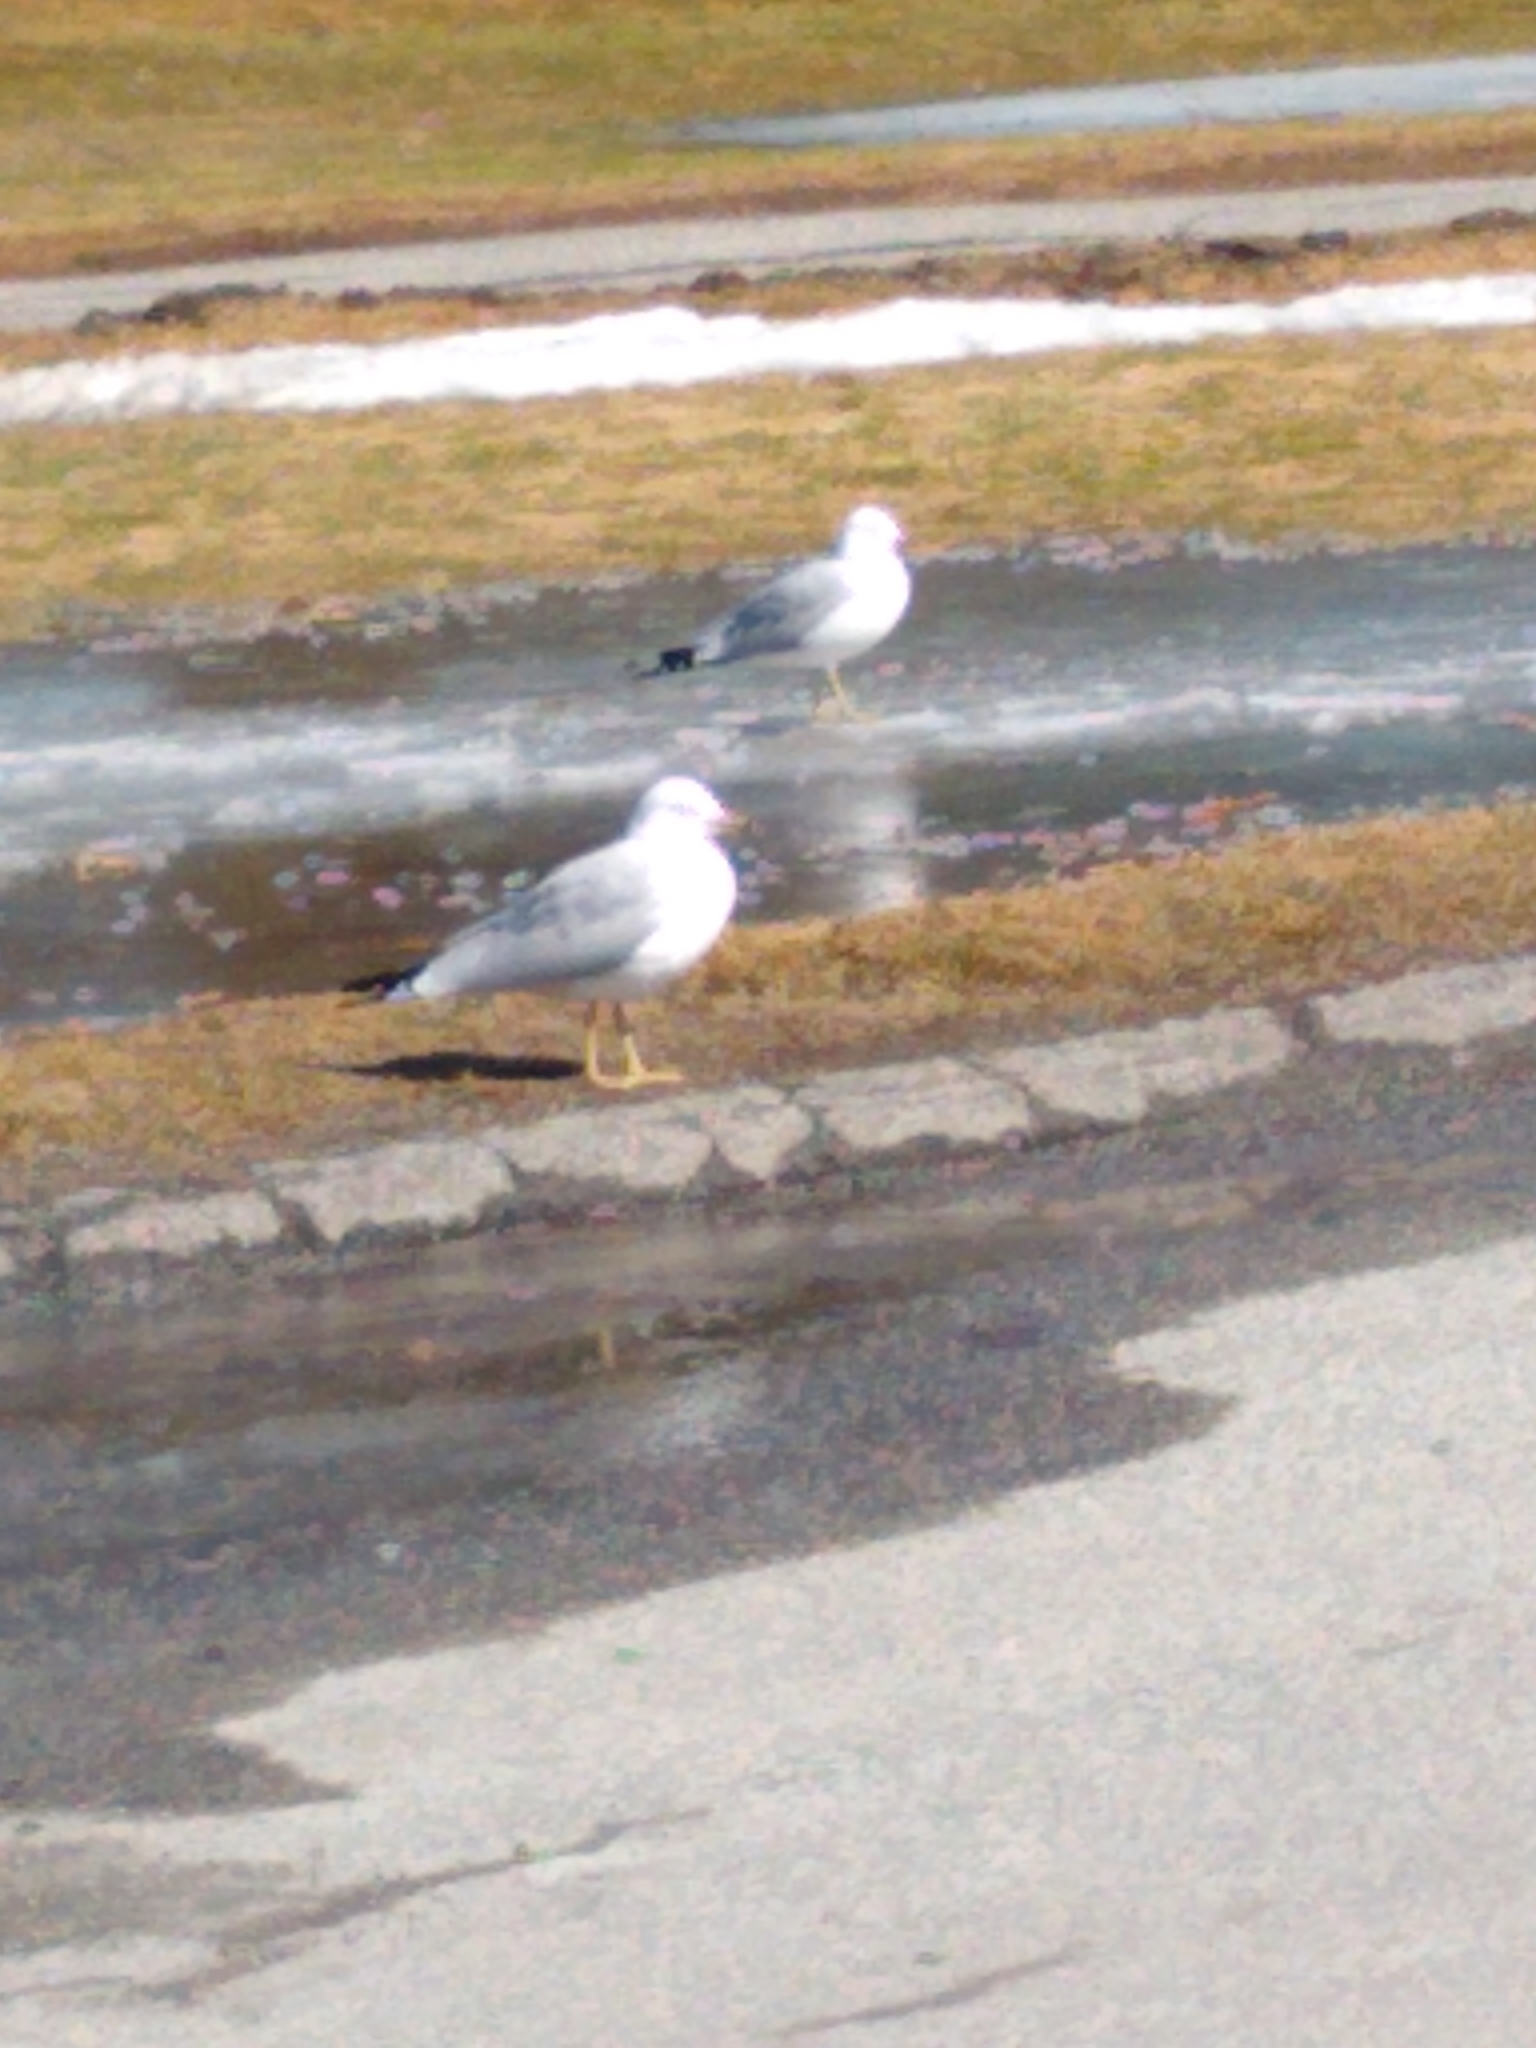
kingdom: Animalia
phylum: Chordata
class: Aves
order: Charadriiformes
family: Laridae
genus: Larus
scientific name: Larus delawarensis
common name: Ring-billed gull
